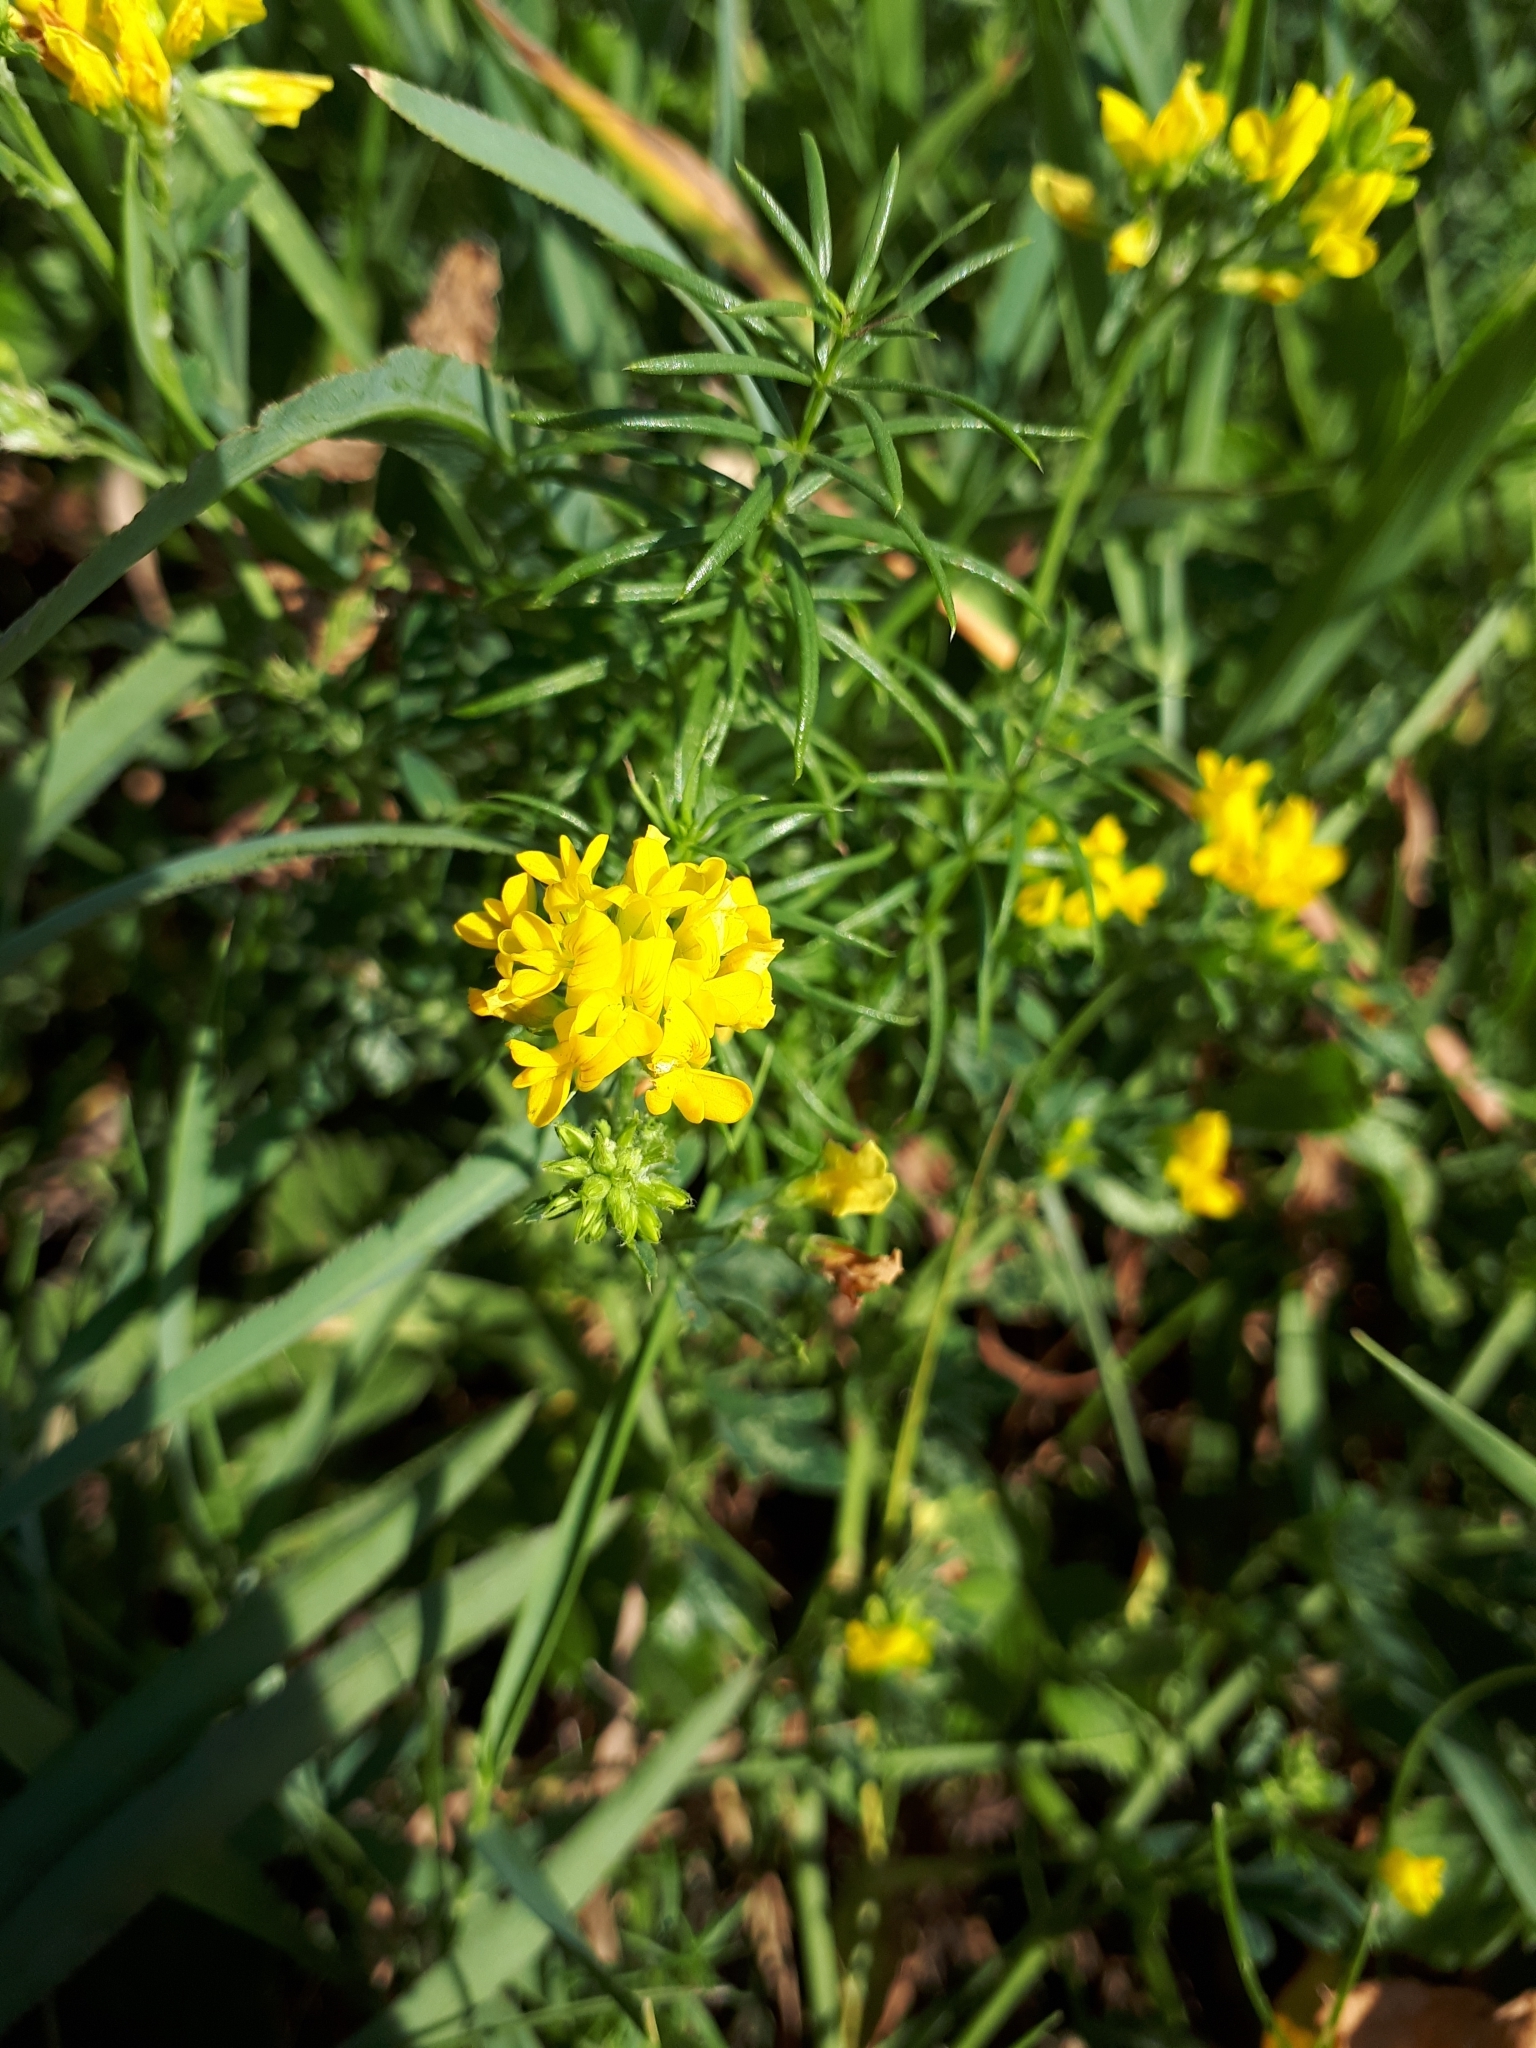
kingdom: Plantae
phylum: Tracheophyta
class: Magnoliopsida
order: Fabales
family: Fabaceae
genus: Medicago
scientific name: Medicago falcata
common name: Sickle medick
